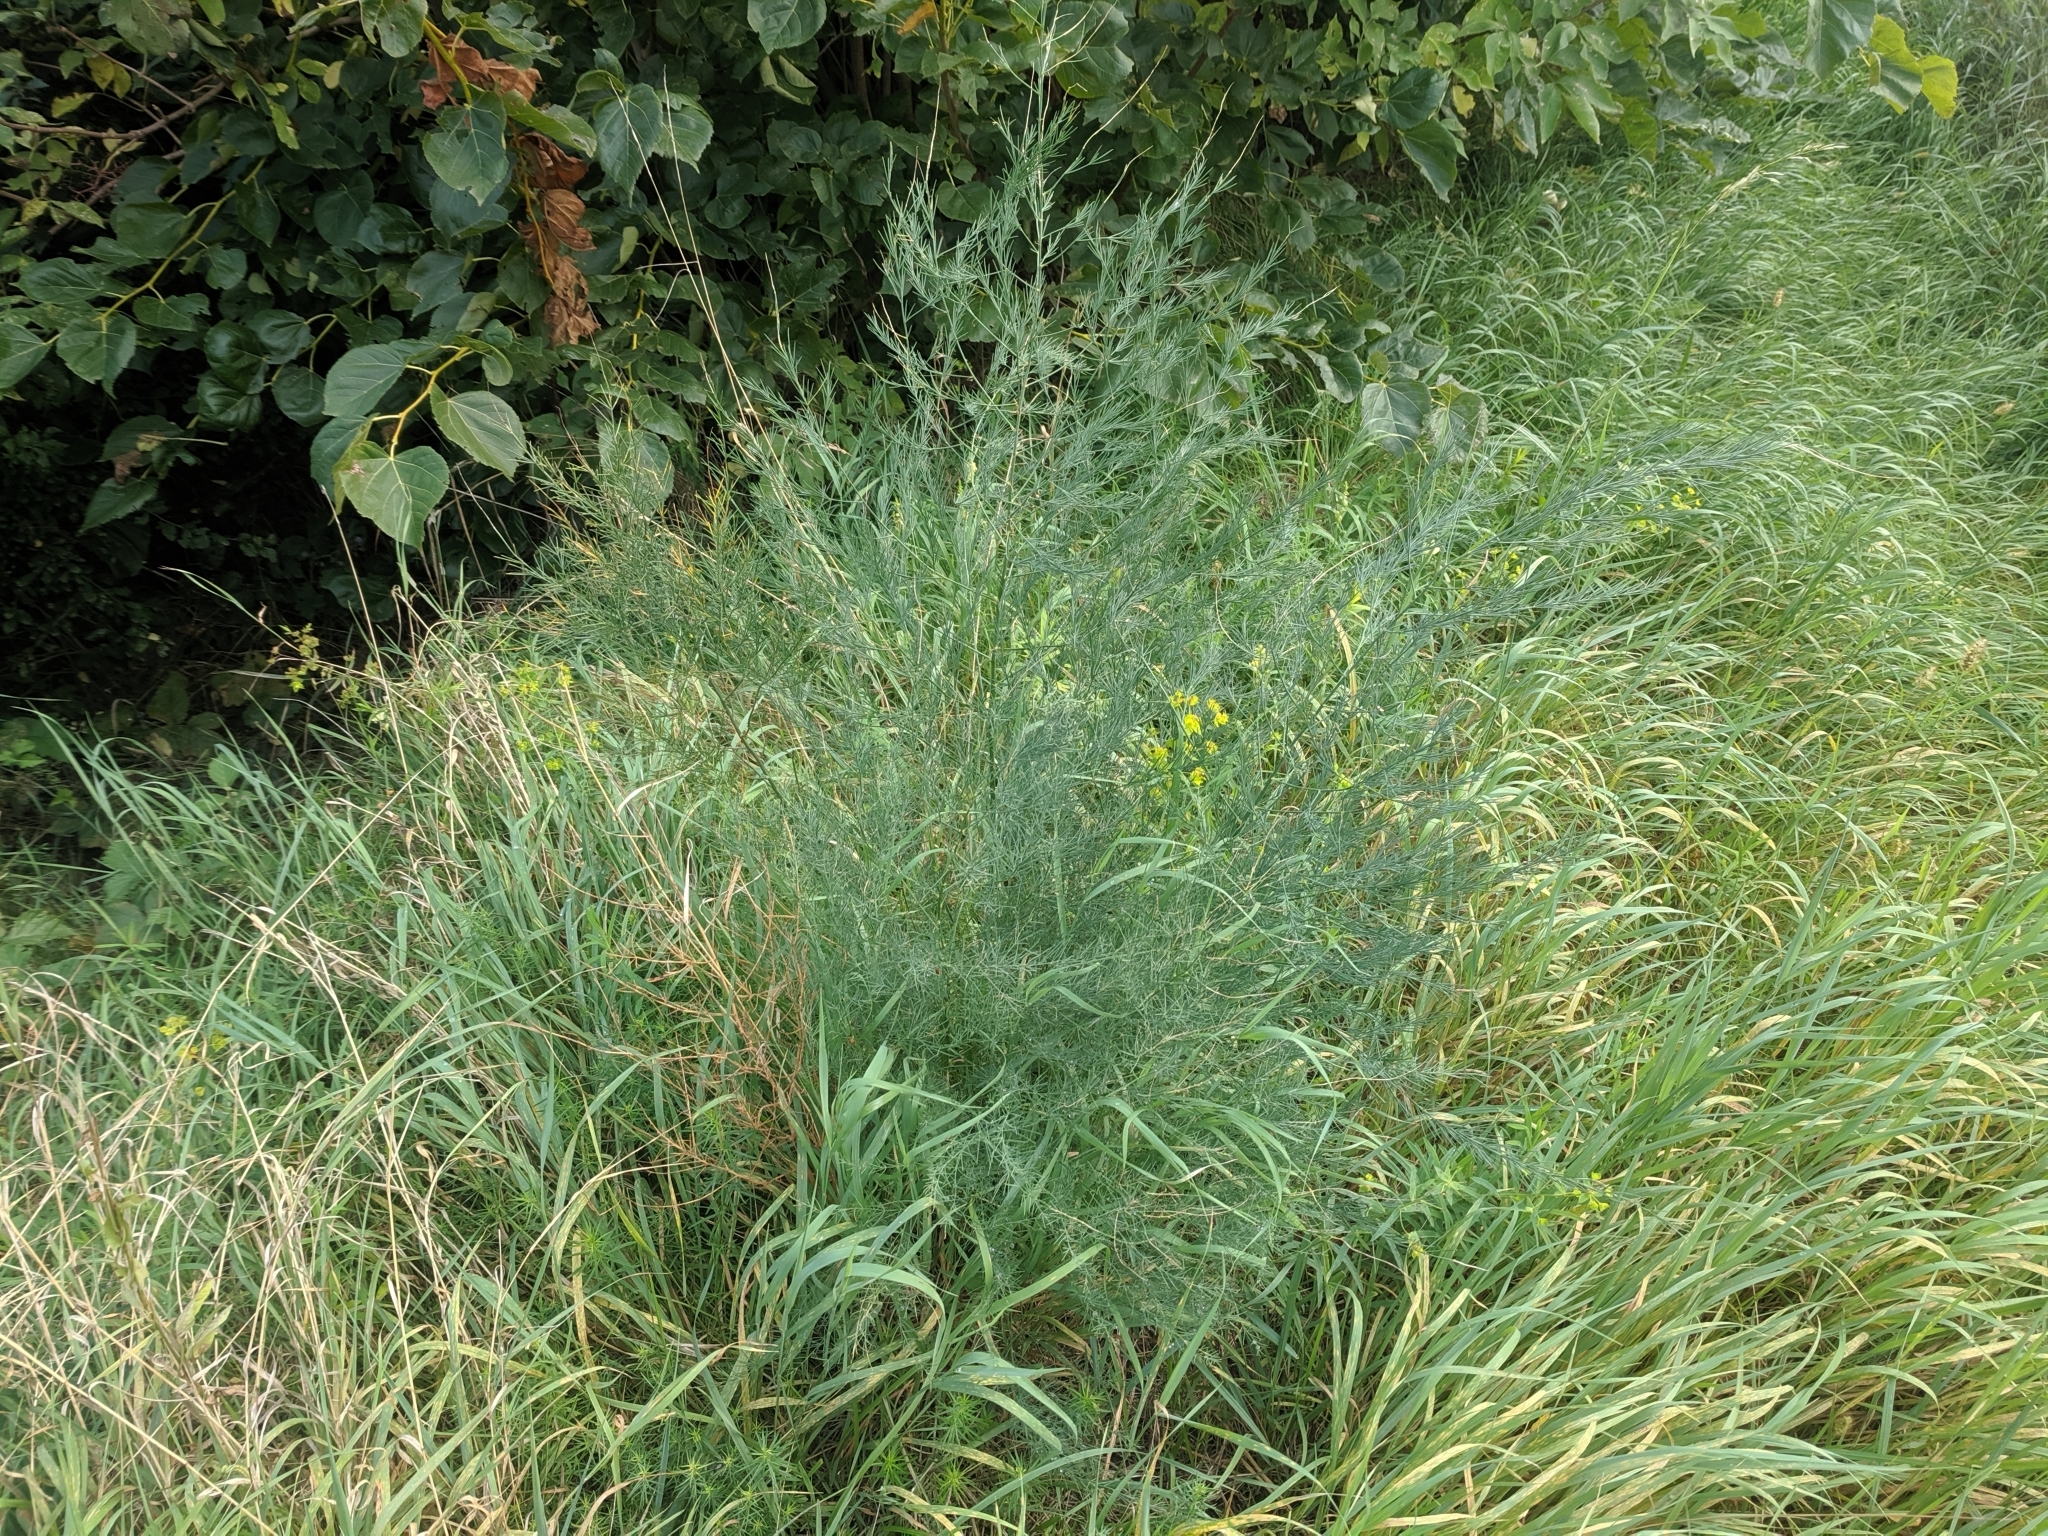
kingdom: Plantae
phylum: Tracheophyta
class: Liliopsida
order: Asparagales
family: Asparagaceae
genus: Asparagus
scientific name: Asparagus officinalis
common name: Garden asparagus
